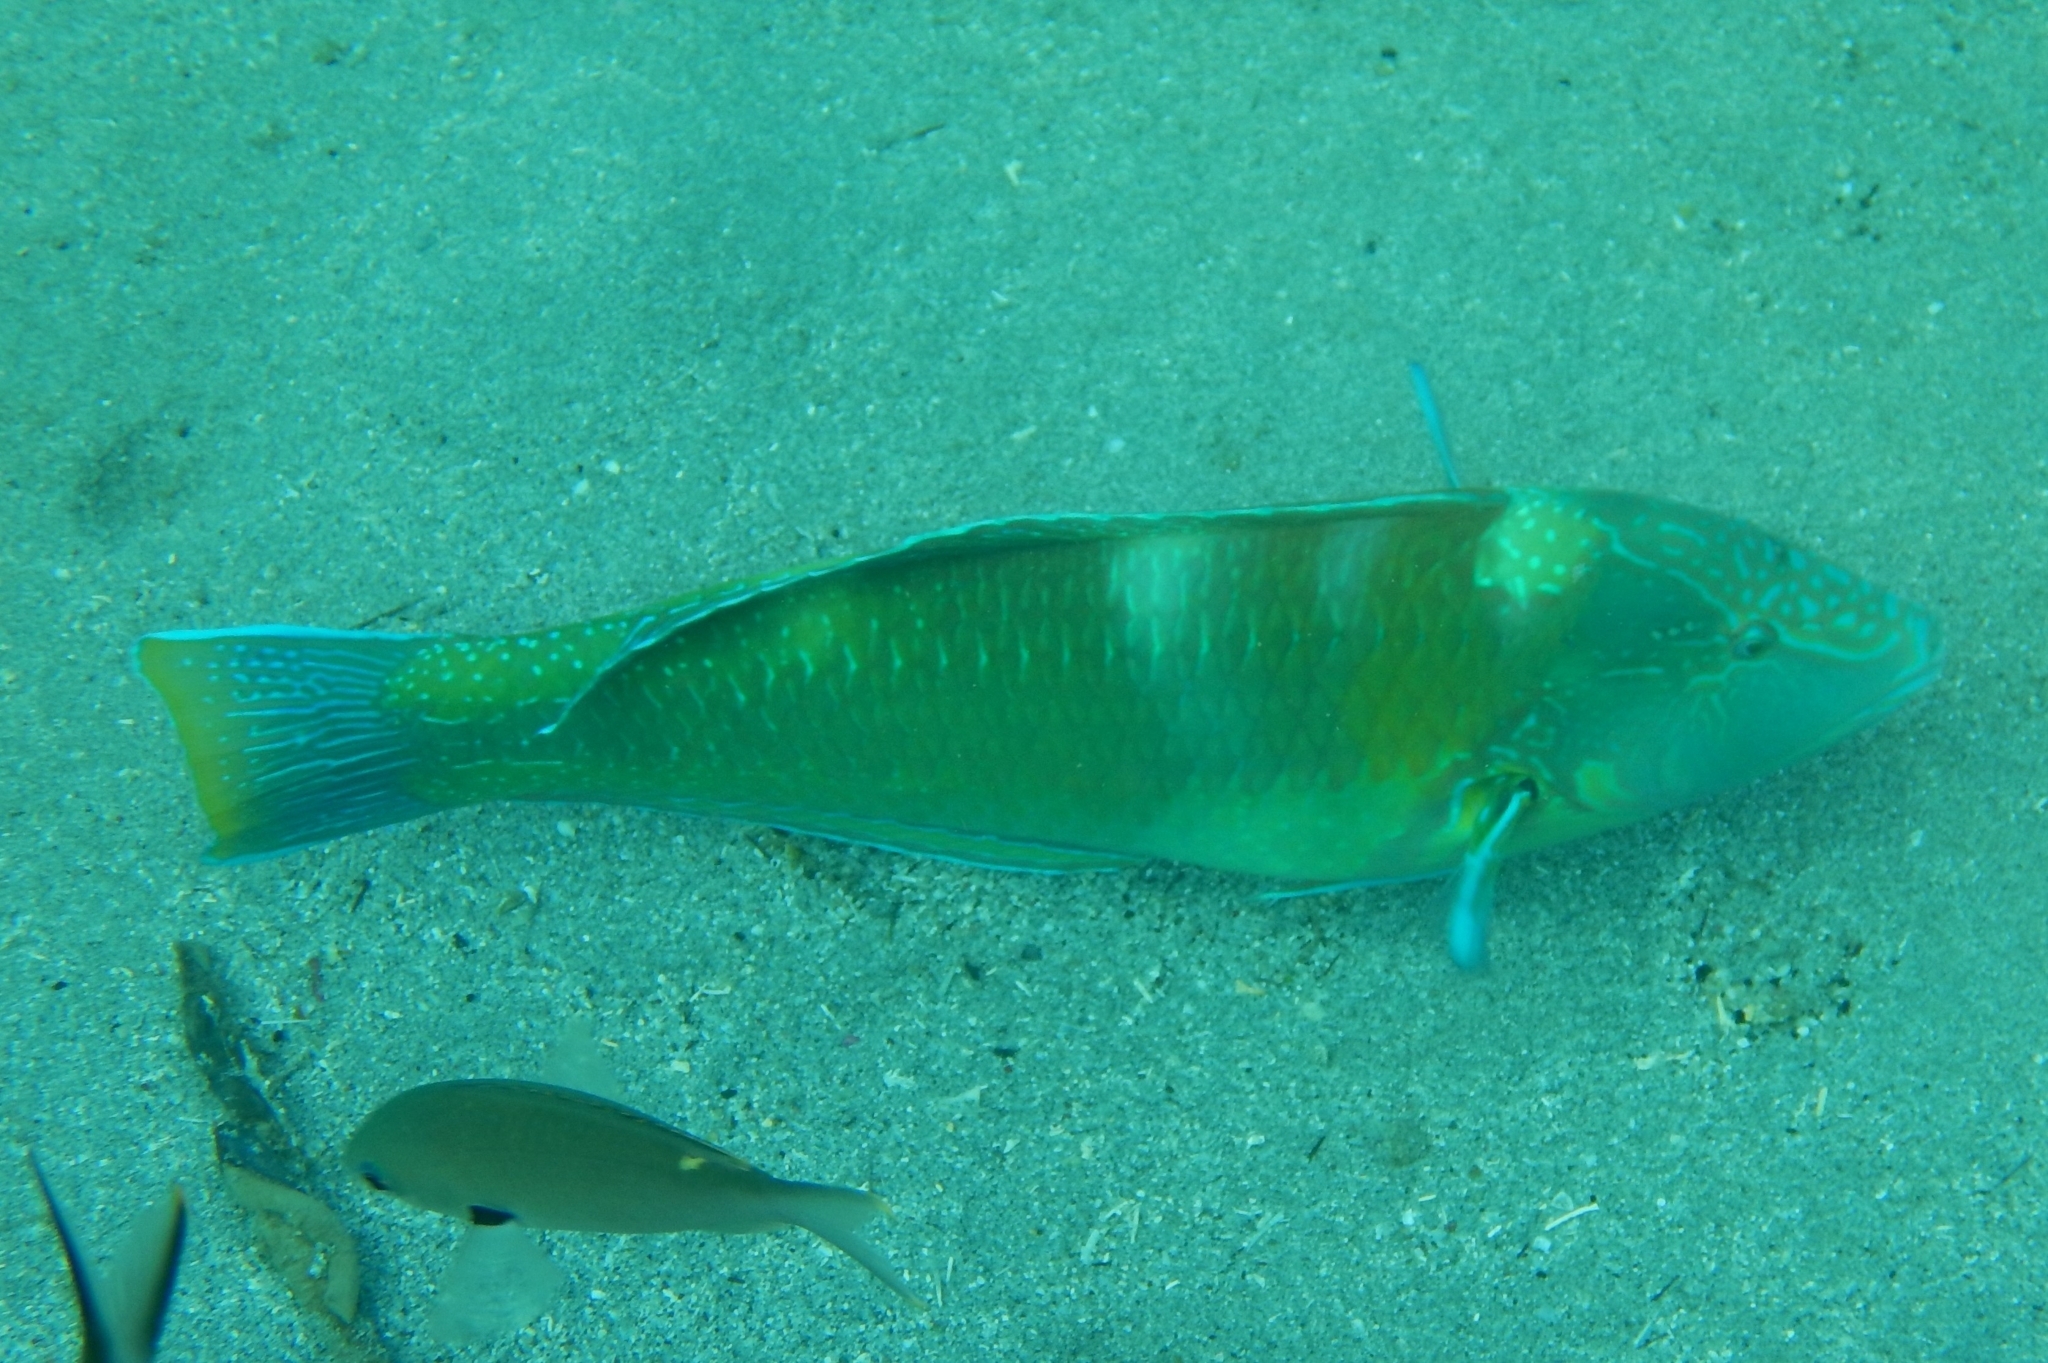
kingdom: Animalia
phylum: Chordata
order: Perciformes
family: Labridae
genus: Halichoeres
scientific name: Halichoeres radiatus
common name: Puddingwife
